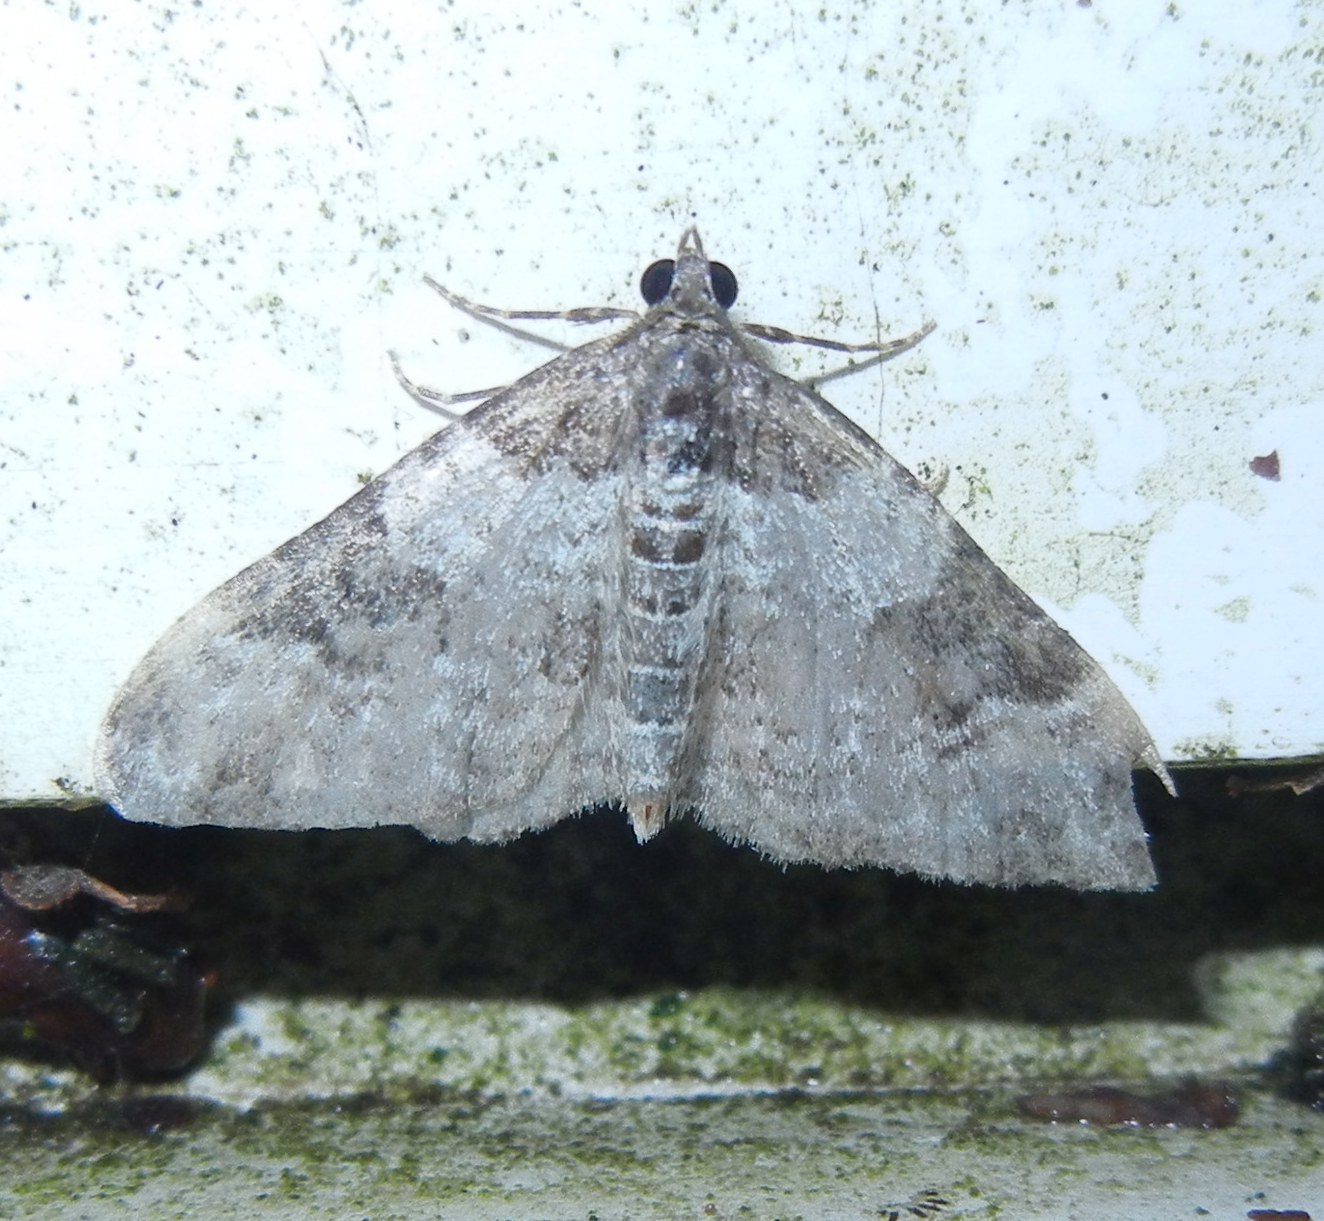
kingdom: Animalia
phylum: Arthropoda
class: Insecta
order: Lepidoptera
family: Geometridae
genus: Xanthorhoe
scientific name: Xanthorhoe fluctuata
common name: Garden carpet
